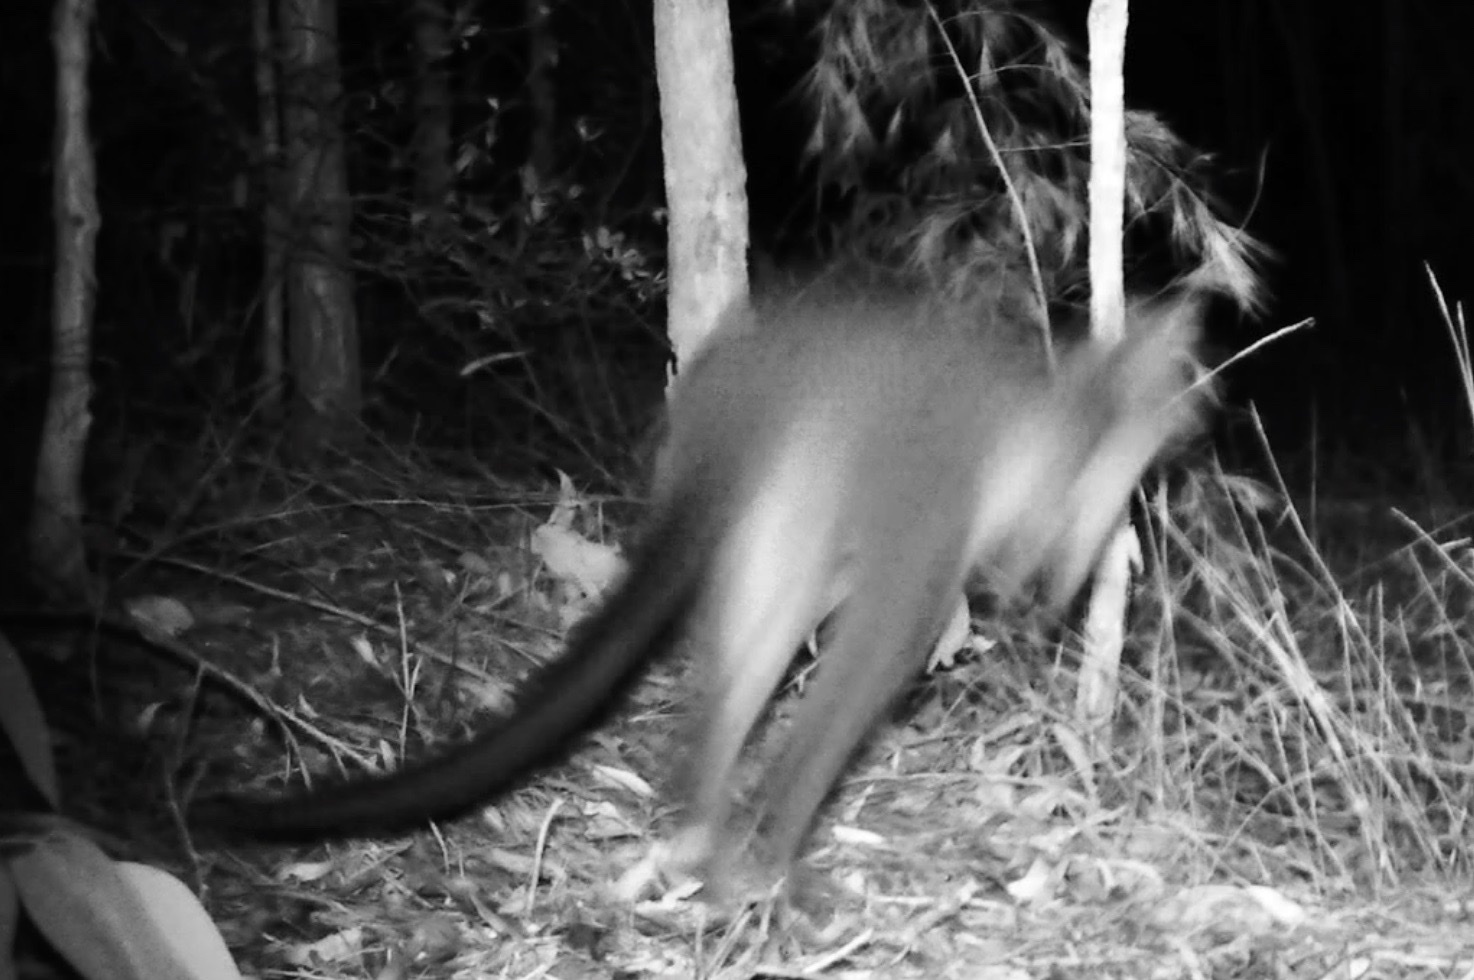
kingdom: Animalia
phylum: Chordata
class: Mammalia
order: Diprotodontia
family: Macropodidae
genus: Wallabia
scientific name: Wallabia bicolor
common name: Swamp wallaby
